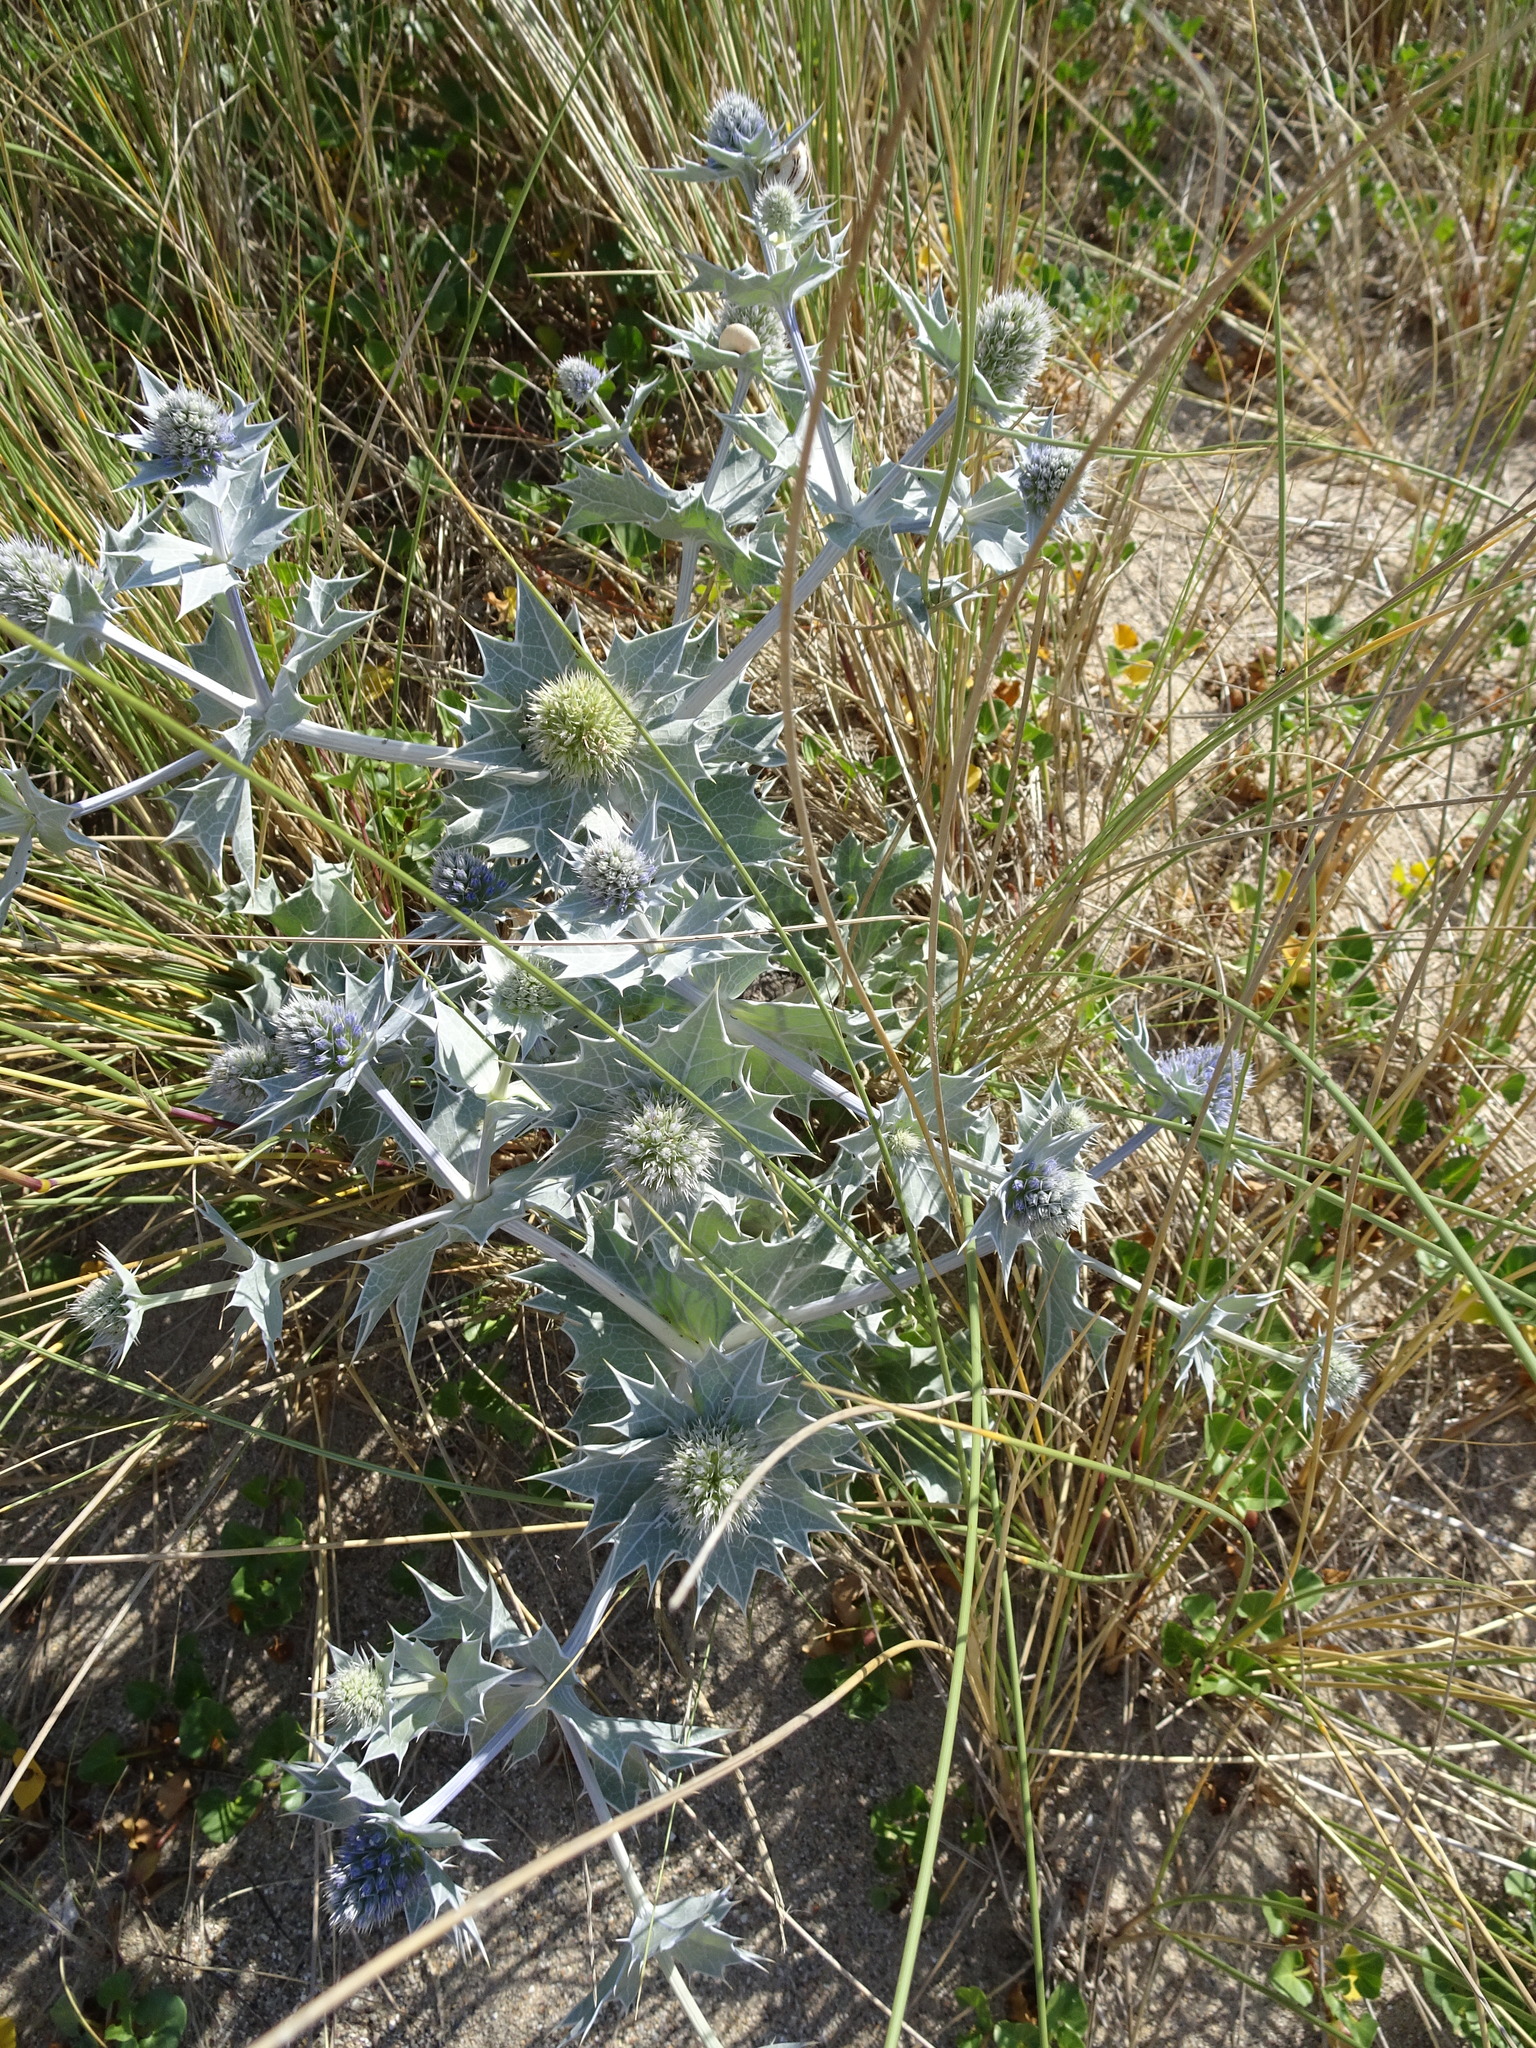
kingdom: Plantae
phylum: Tracheophyta
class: Magnoliopsida
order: Apiales
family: Apiaceae
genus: Eryngium
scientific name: Eryngium maritimum
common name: Sea-holly
